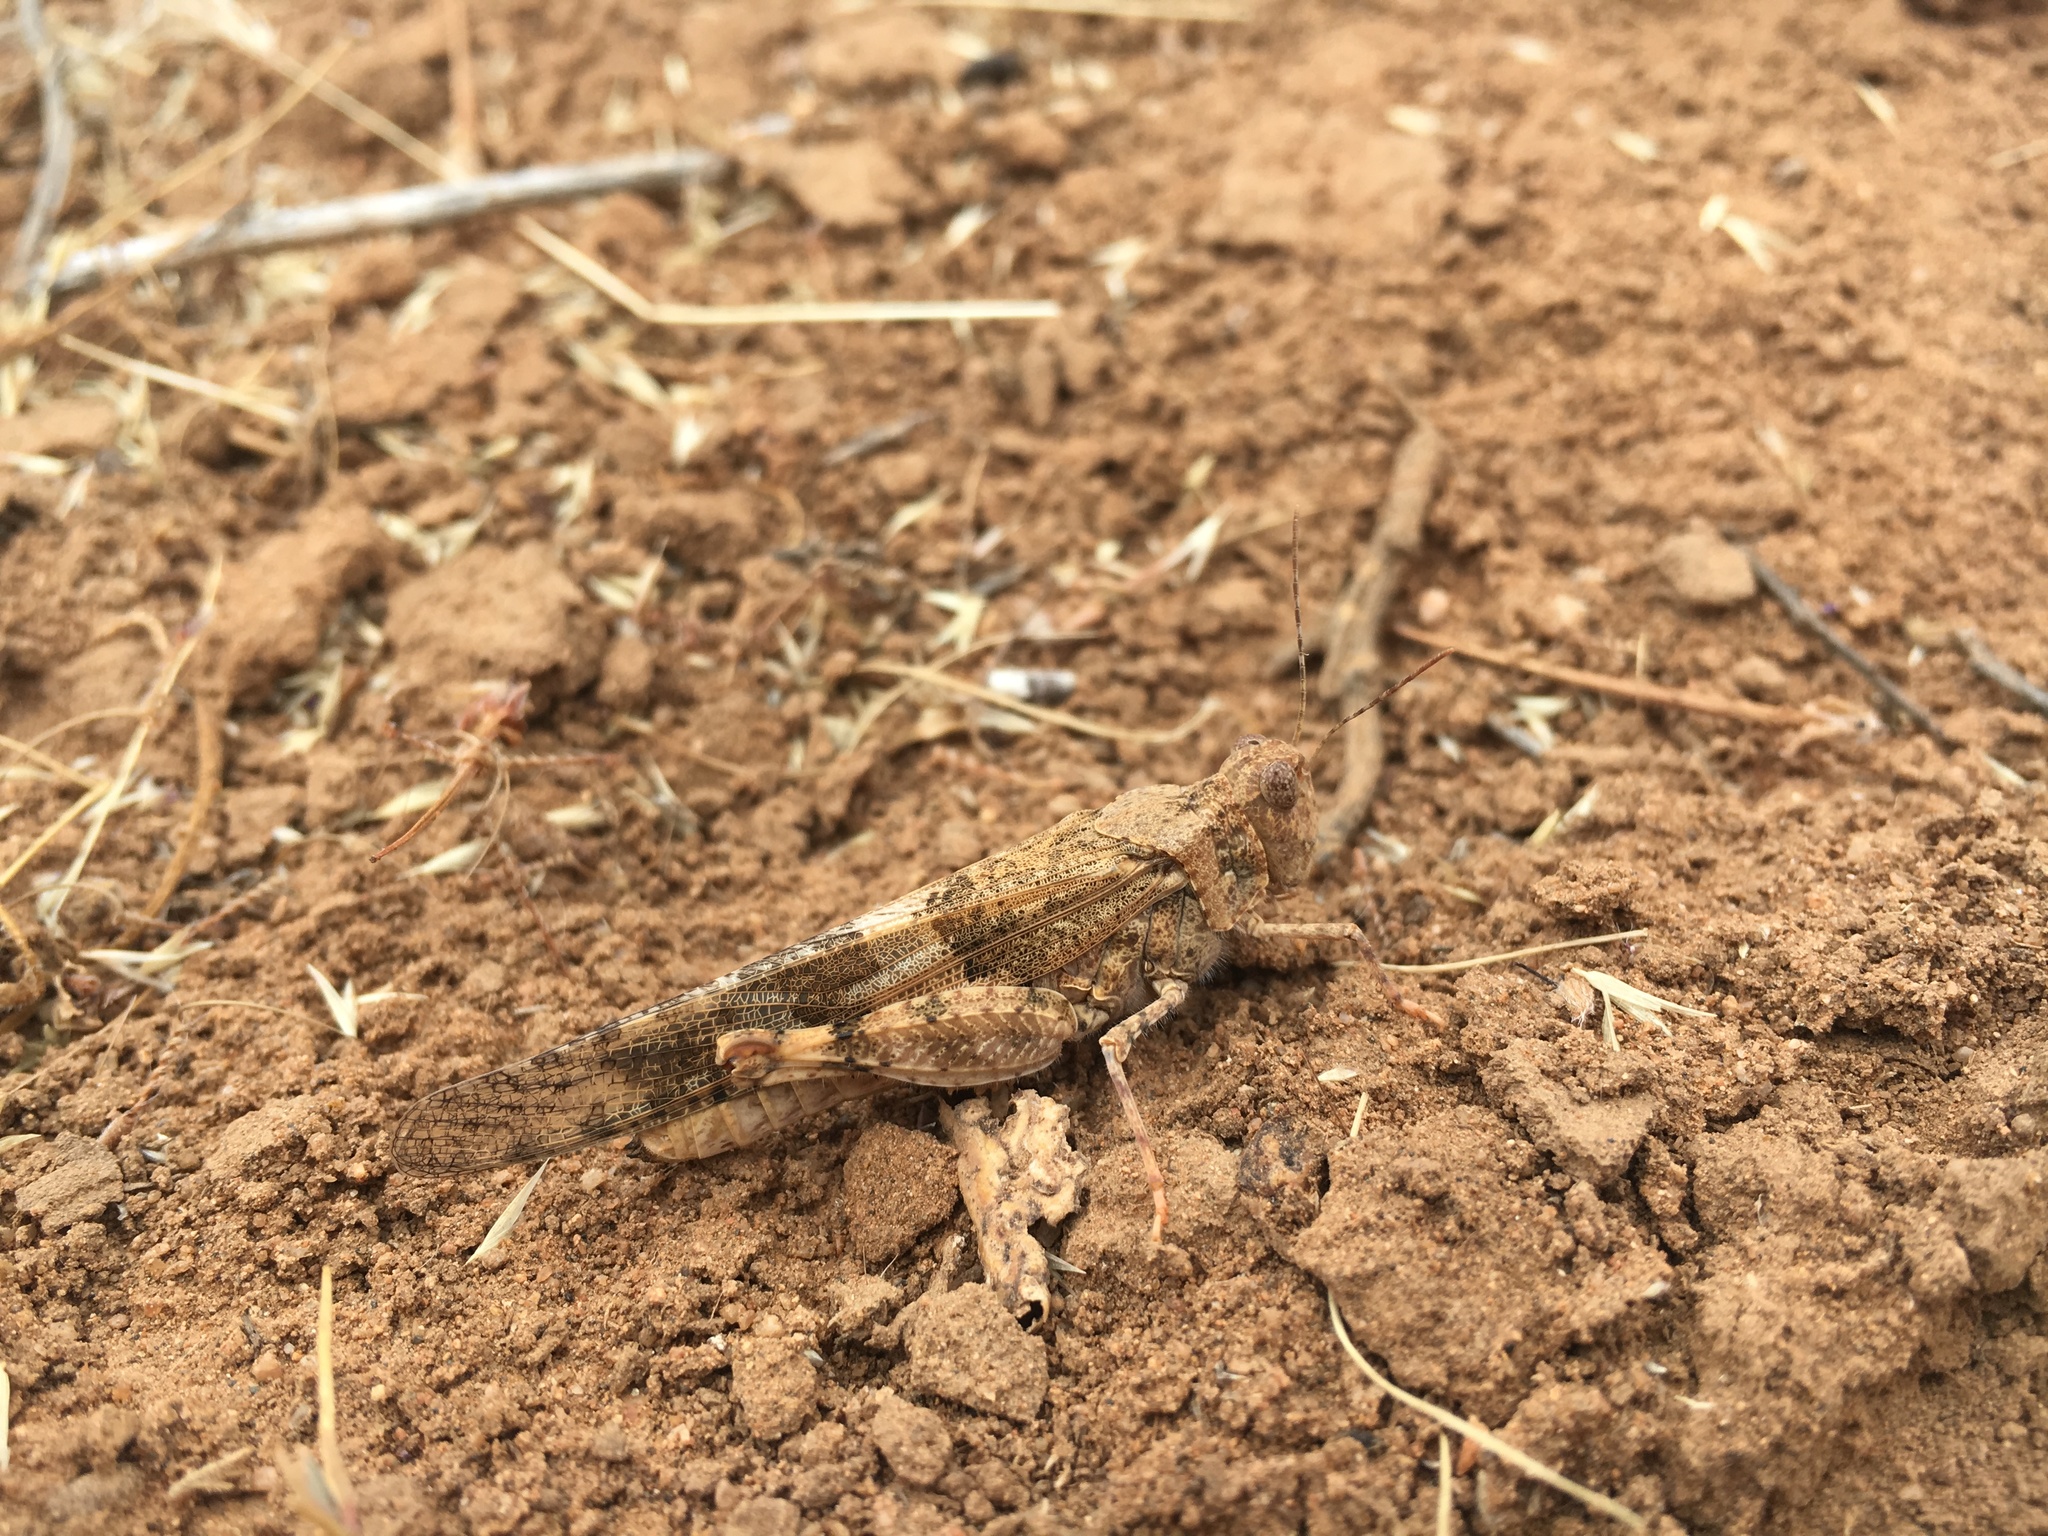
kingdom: Animalia
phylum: Arthropoda
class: Insecta
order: Orthoptera
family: Acrididae
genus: Trimerotropis
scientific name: Trimerotropis pallidipennis
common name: Pallid-winged grasshopper
